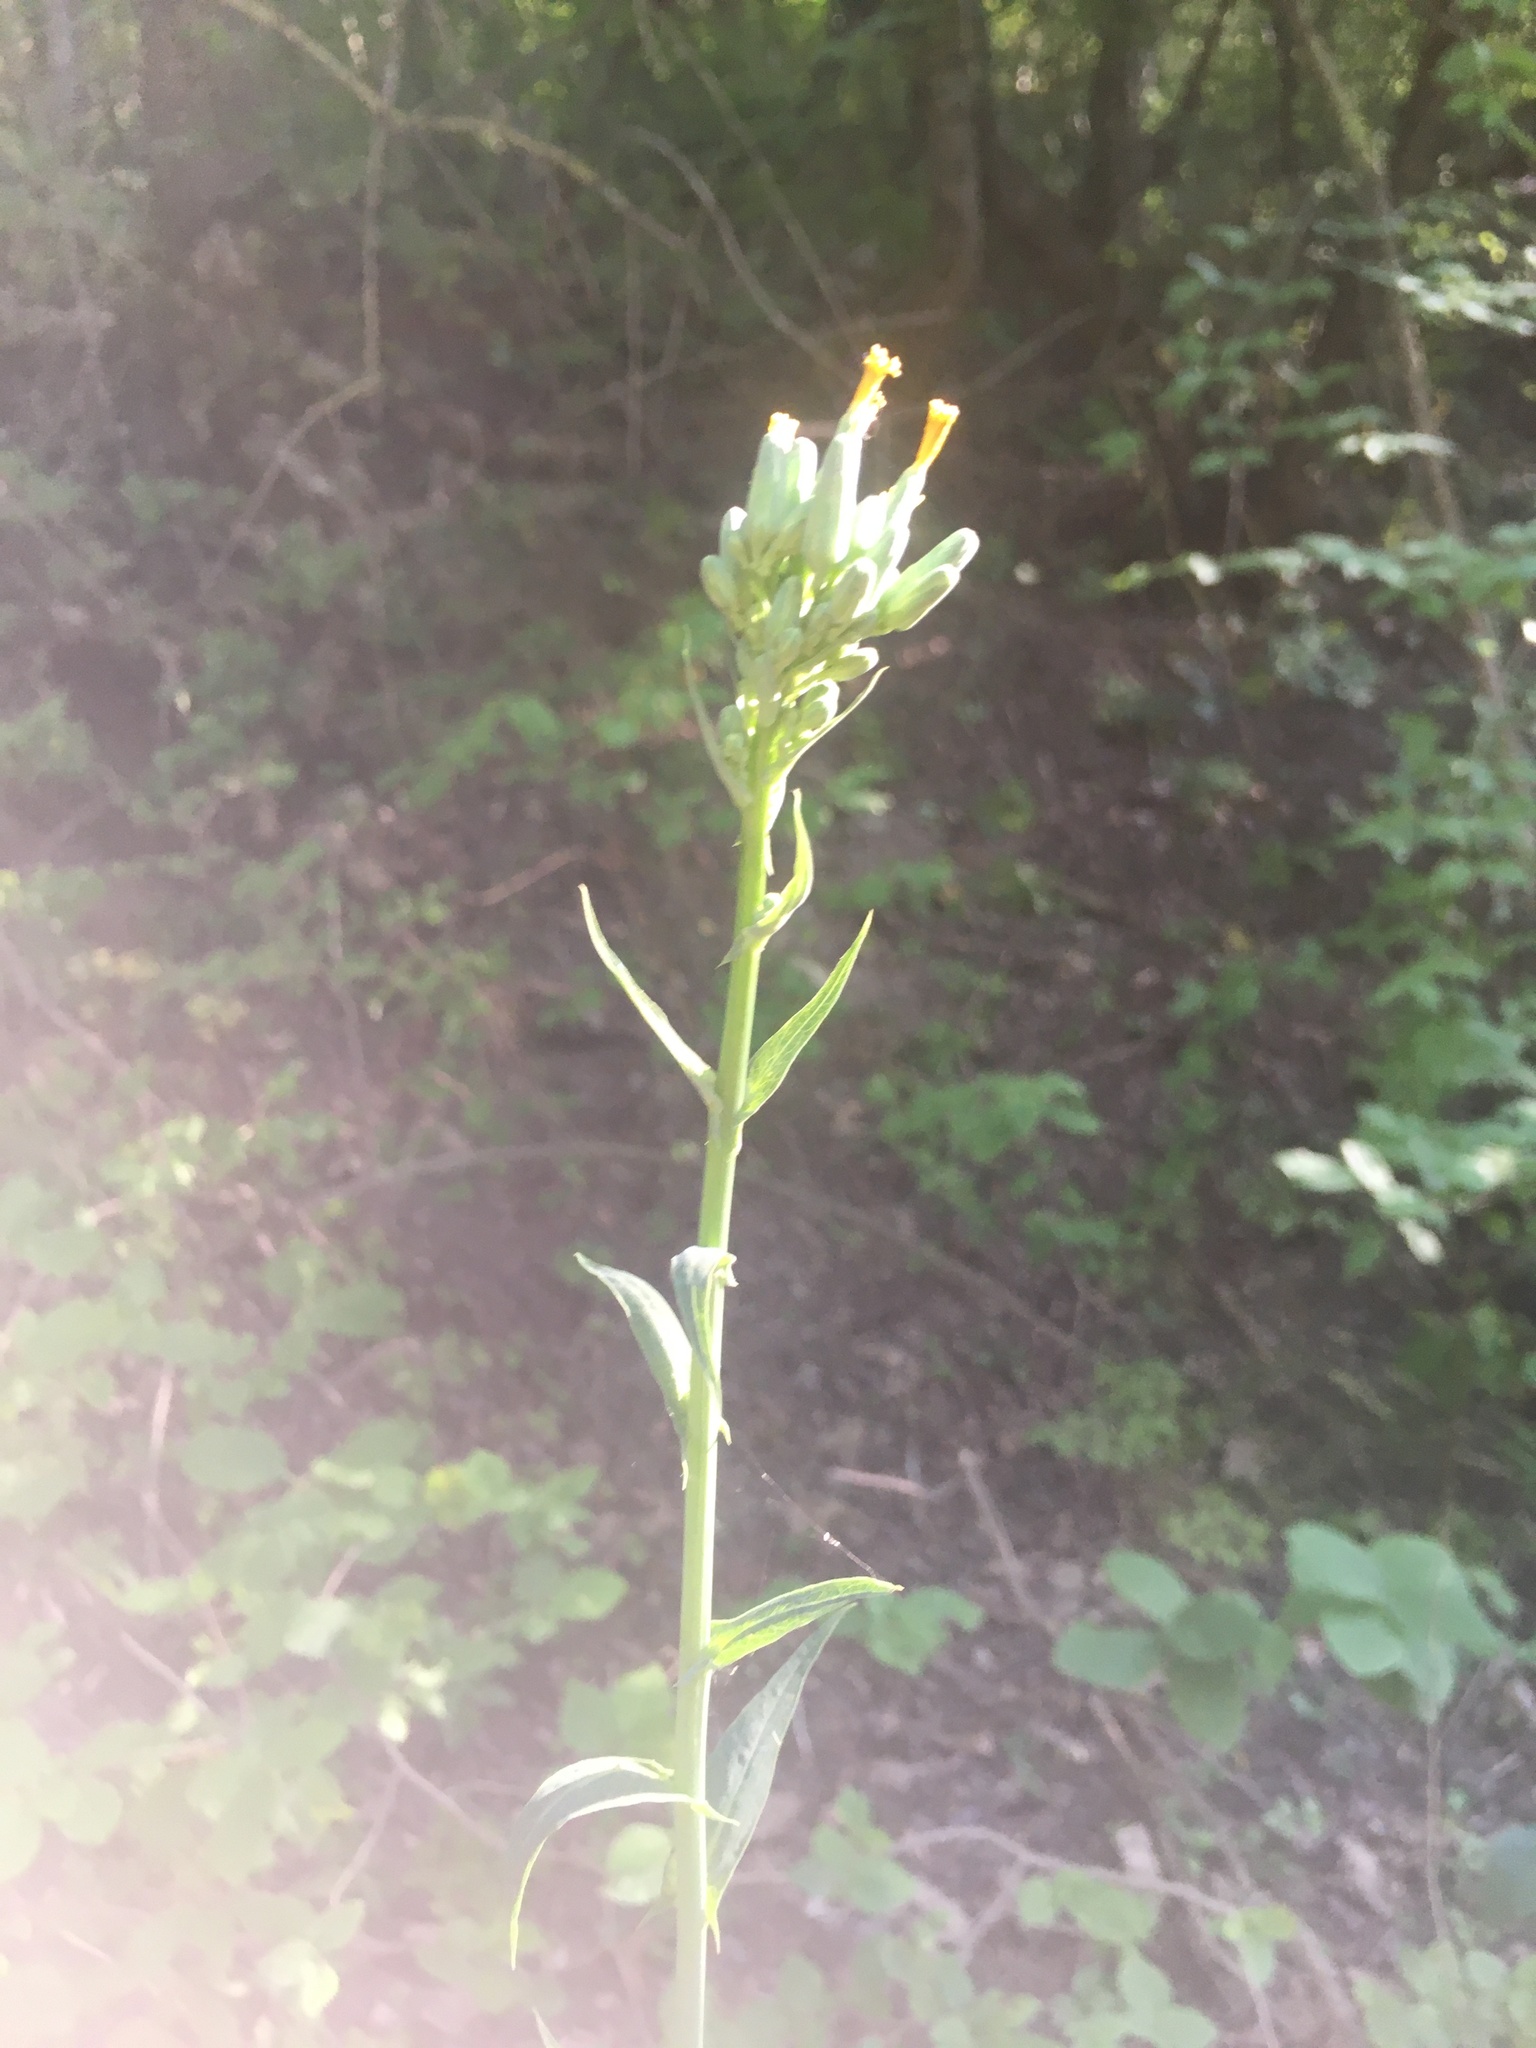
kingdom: Plantae
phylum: Tracheophyta
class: Magnoliopsida
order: Asterales
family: Asteraceae
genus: Lactuca
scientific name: Lactuca quercina
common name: Wild lettuce
